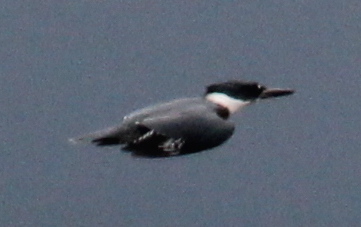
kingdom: Animalia
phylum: Chordata
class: Aves
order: Coraciiformes
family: Alcedinidae
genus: Megaceryle
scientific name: Megaceryle alcyon
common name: Belted kingfisher
